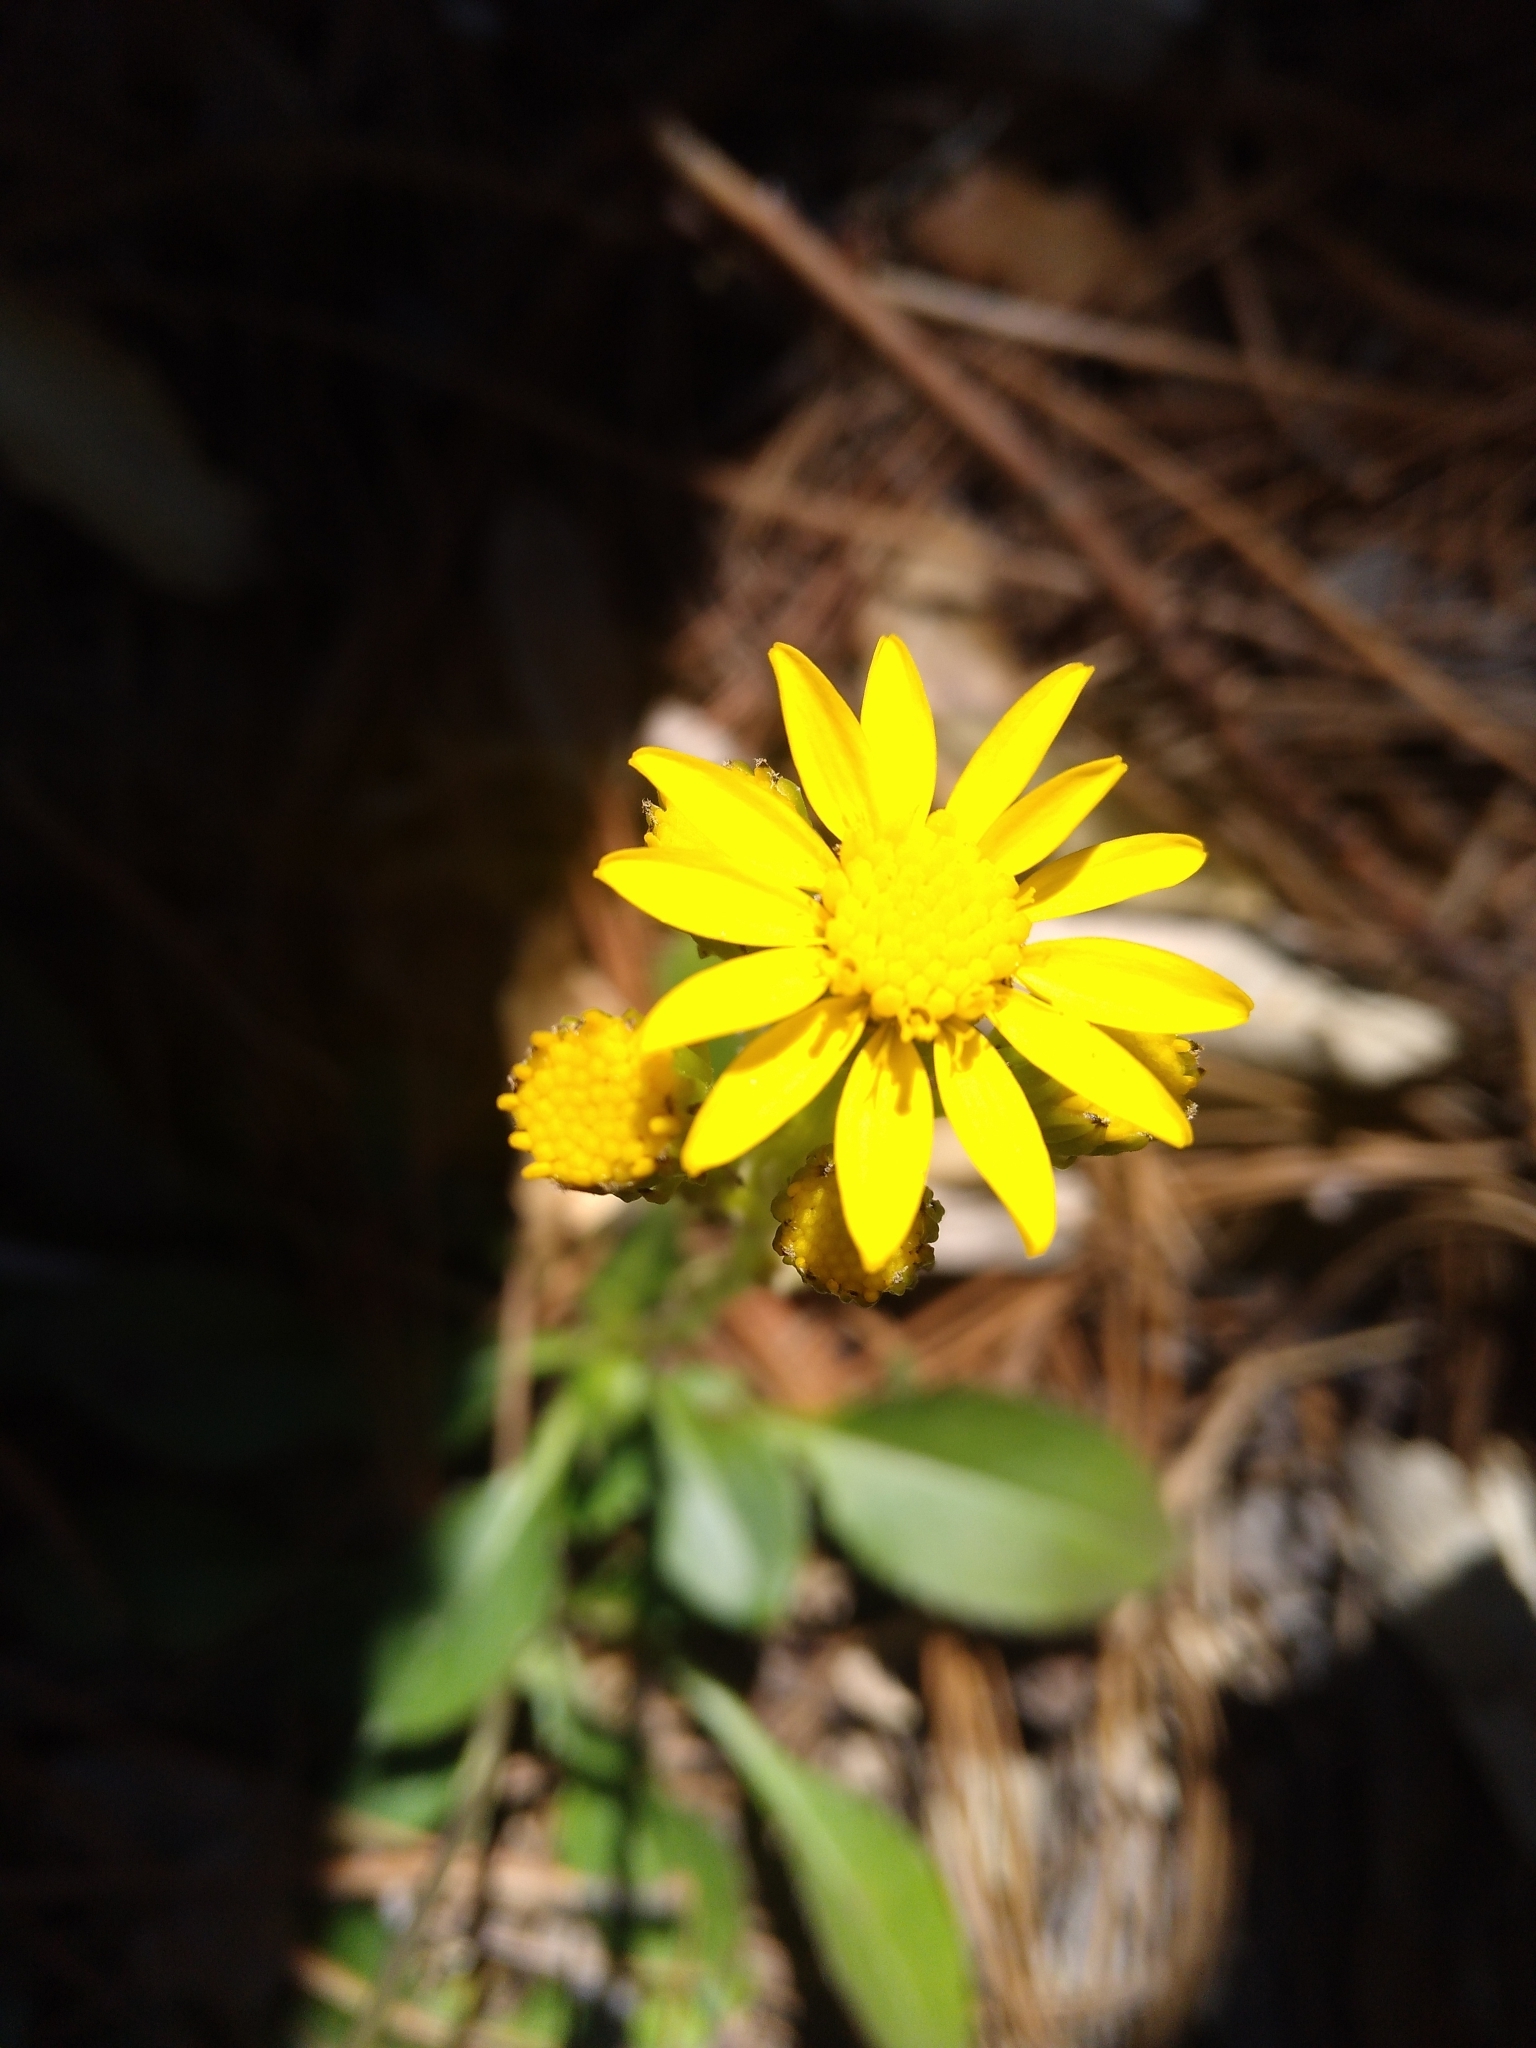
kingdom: Plantae
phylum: Tracheophyta
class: Magnoliopsida
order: Asterales
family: Asteraceae
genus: Packera
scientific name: Packera toluccana
